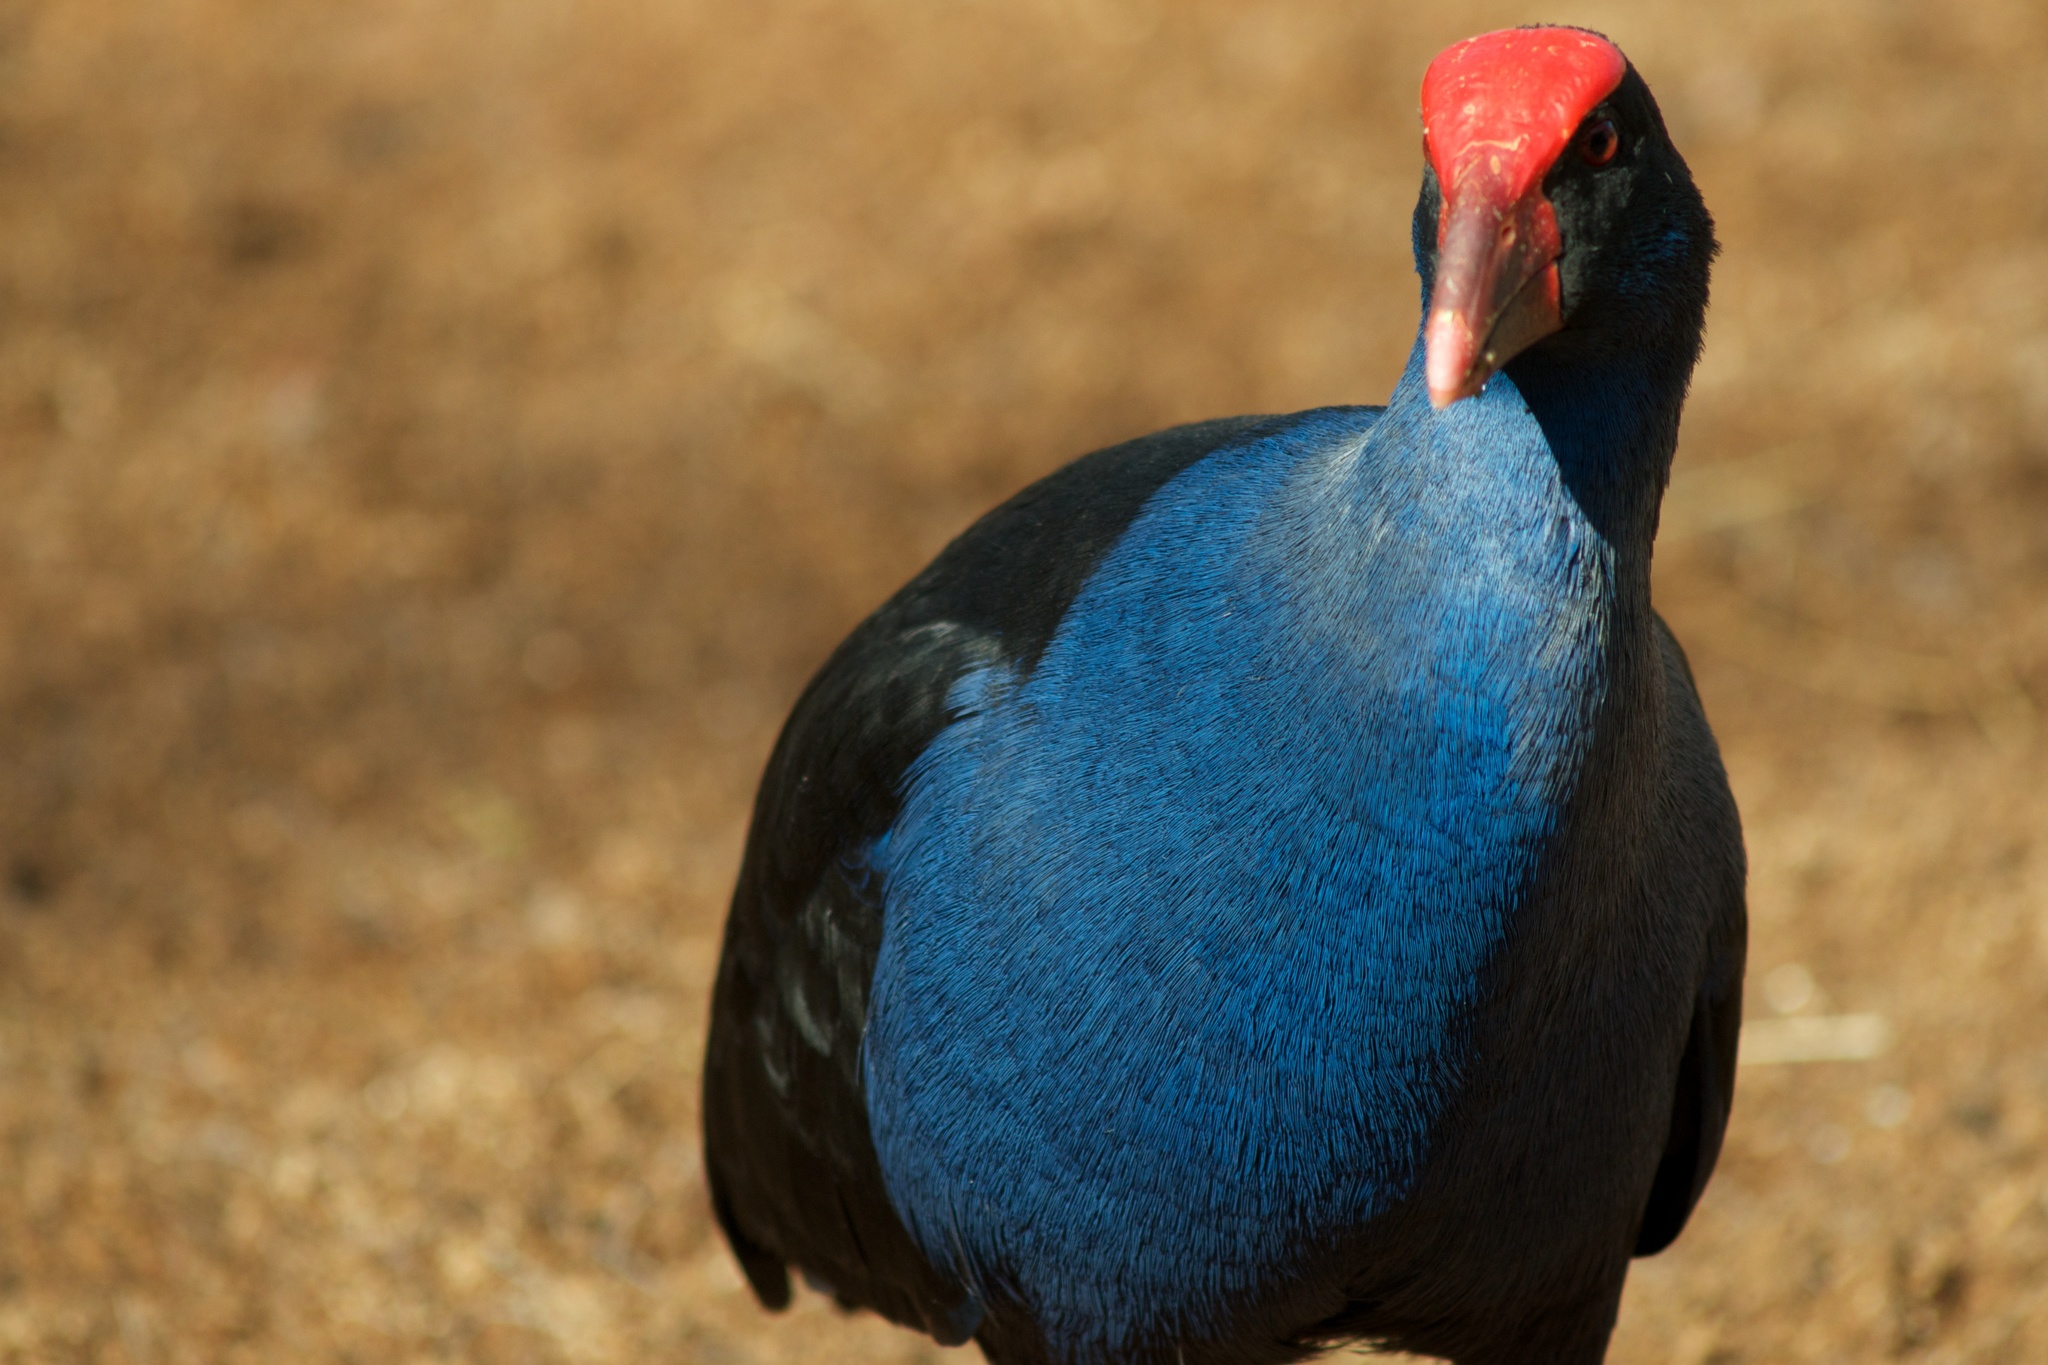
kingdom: Animalia
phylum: Chordata
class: Aves
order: Gruiformes
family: Rallidae
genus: Porphyrio
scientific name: Porphyrio melanotus
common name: Australasian swamphen
